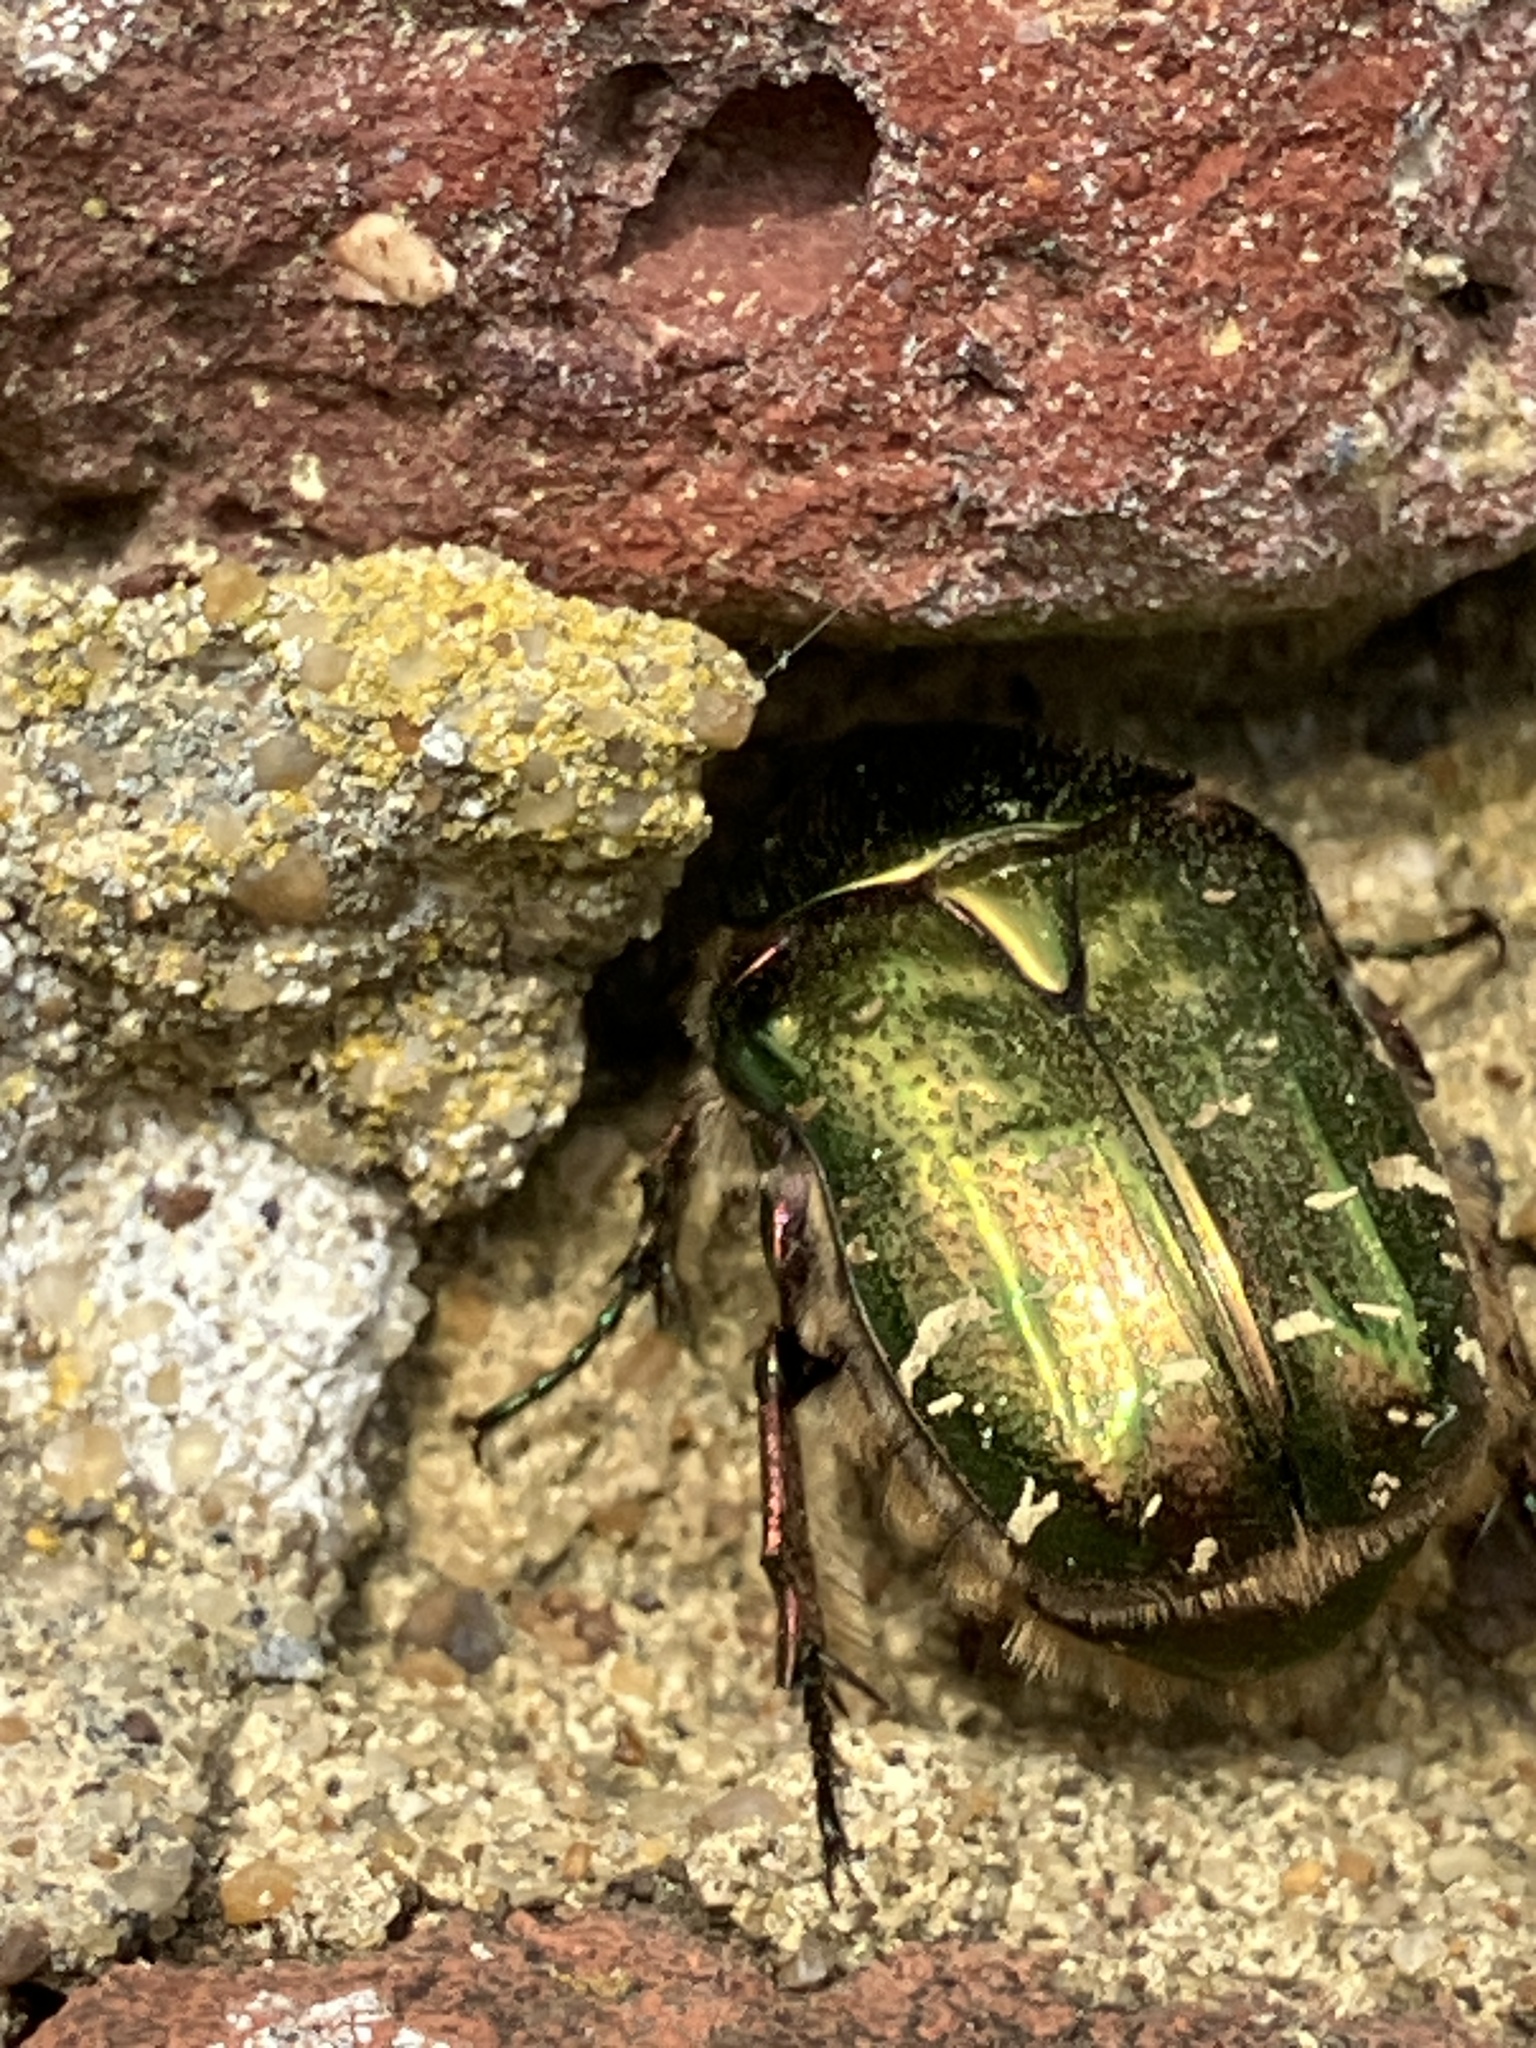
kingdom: Animalia
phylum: Arthropoda
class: Insecta
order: Coleoptera
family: Scarabaeidae
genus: Cetonia
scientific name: Cetonia aurata
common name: Rose chafer
